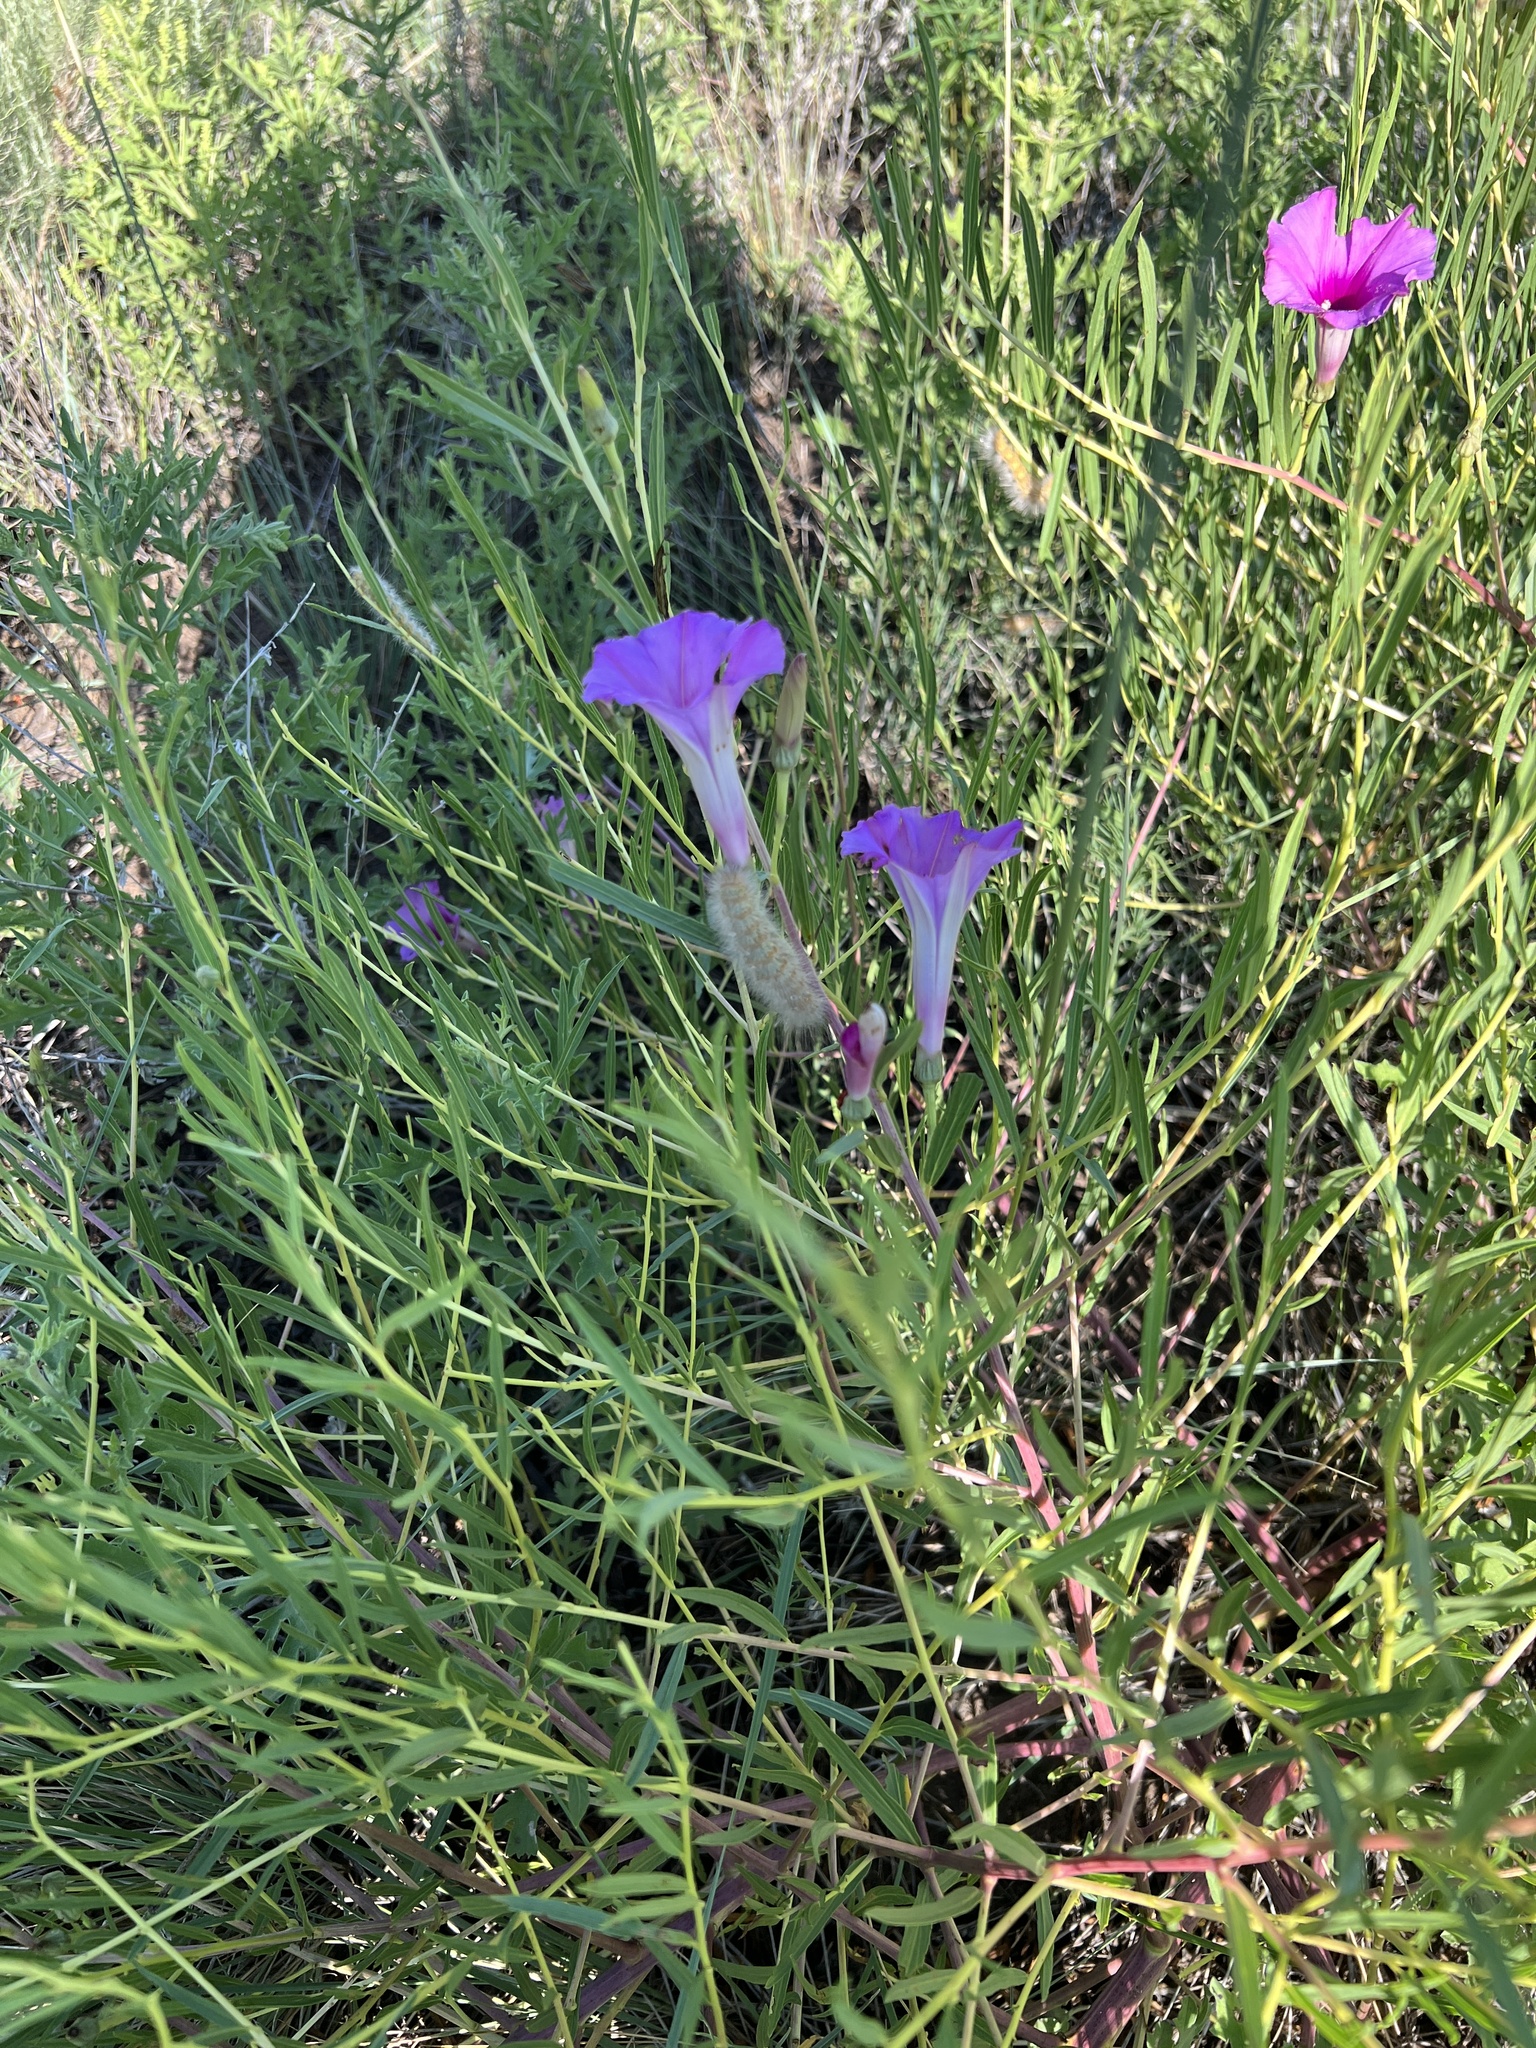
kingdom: Plantae
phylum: Tracheophyta
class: Magnoliopsida
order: Solanales
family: Convolvulaceae
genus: Ipomoea
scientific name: Ipomoea leptophylla
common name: Bush moonflower
